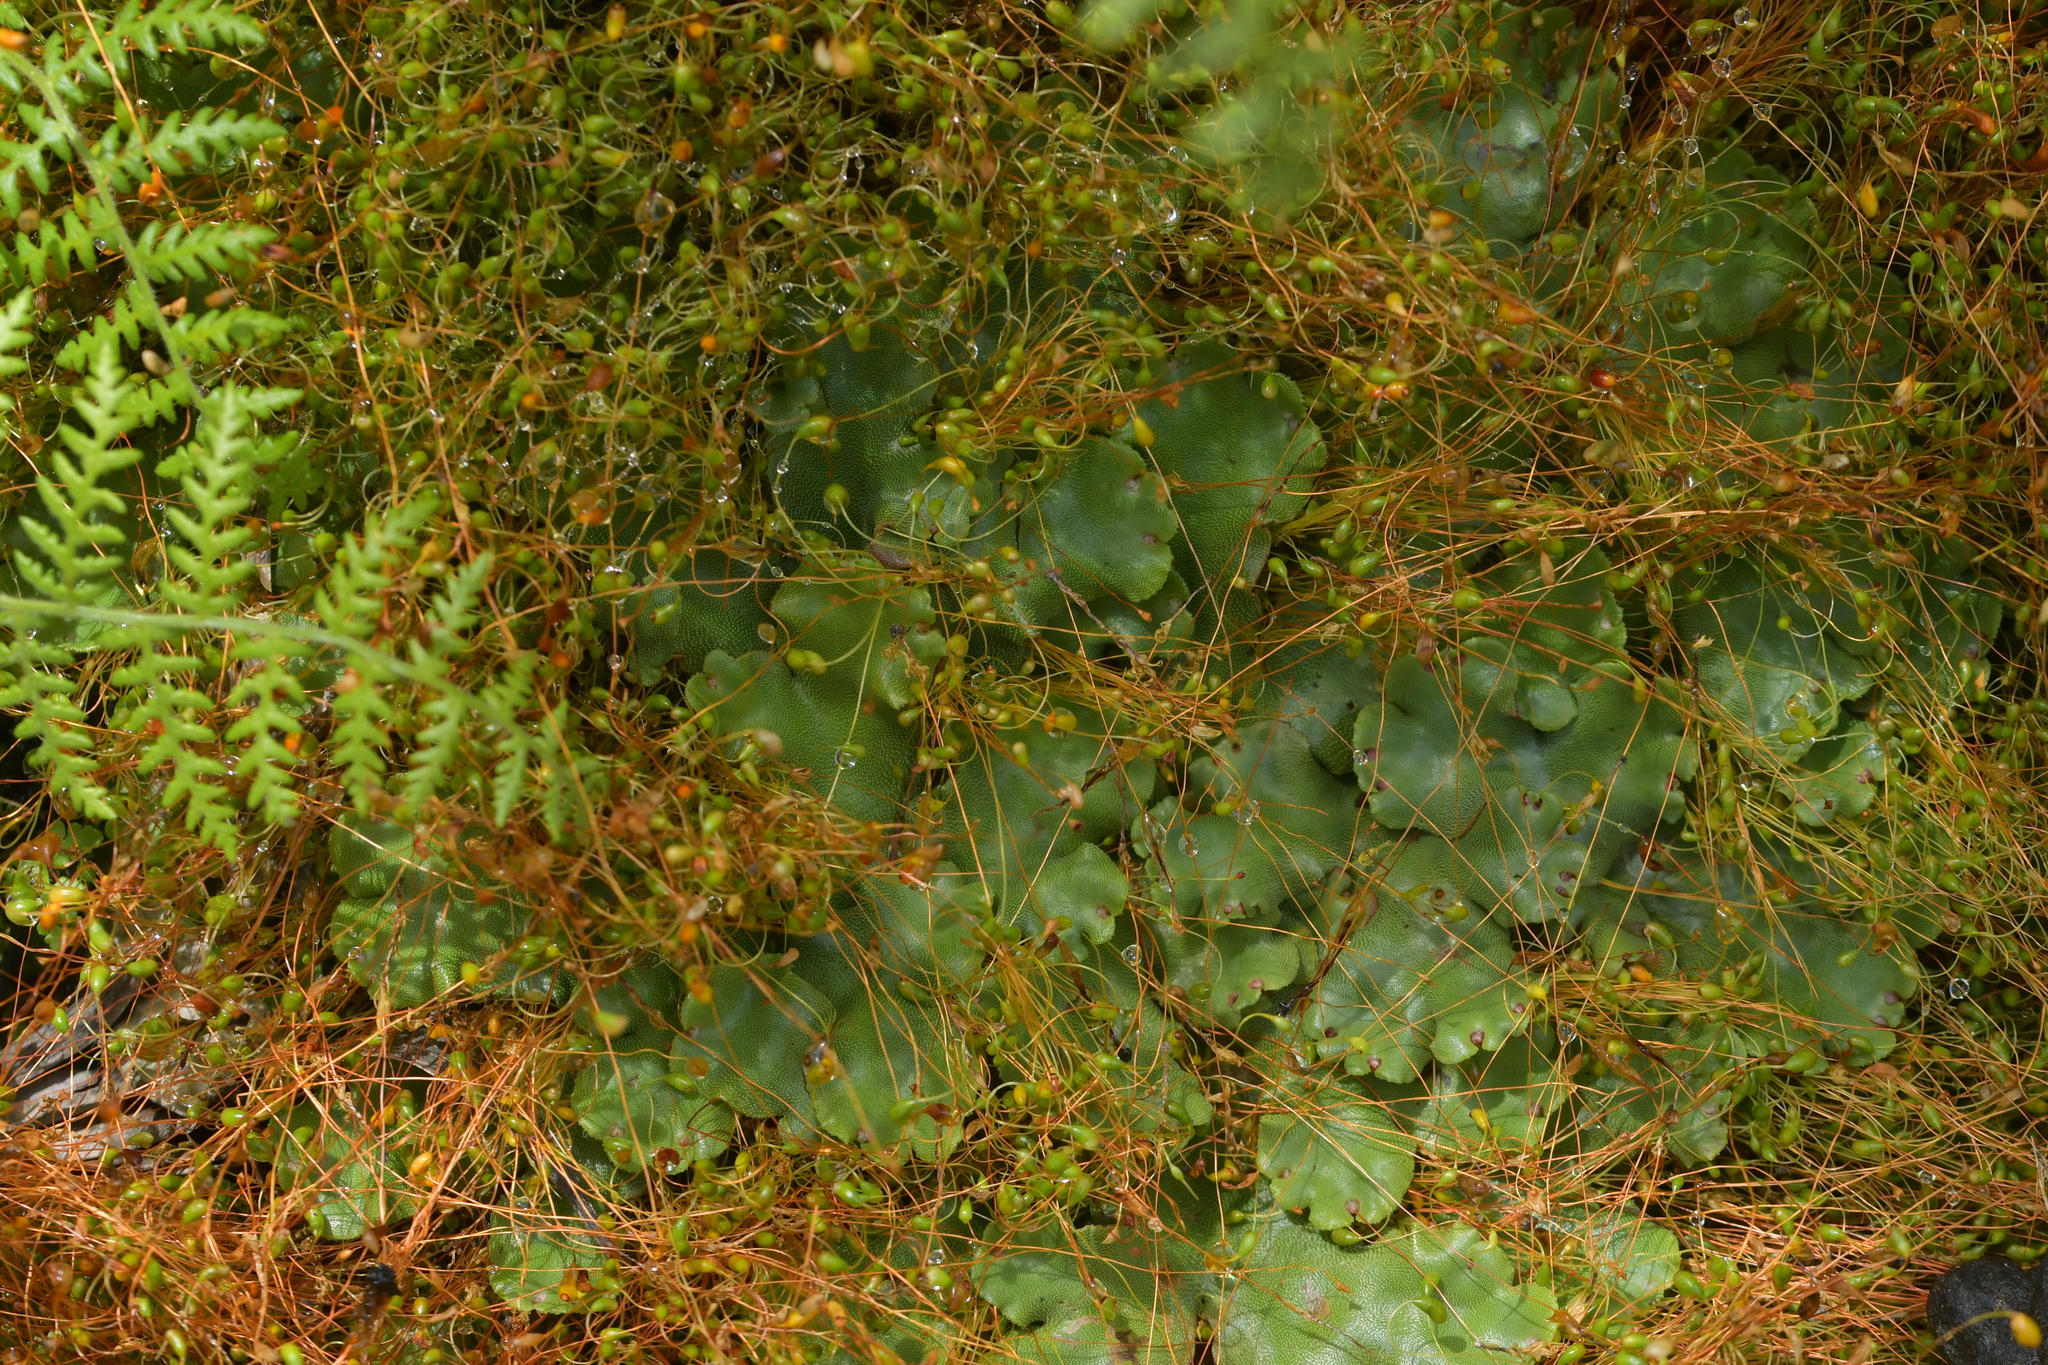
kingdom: Plantae
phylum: Bryophyta
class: Bryopsida
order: Funariales
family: Funariaceae
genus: Funaria
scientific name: Funaria hygrometrica
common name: Common cord moss
